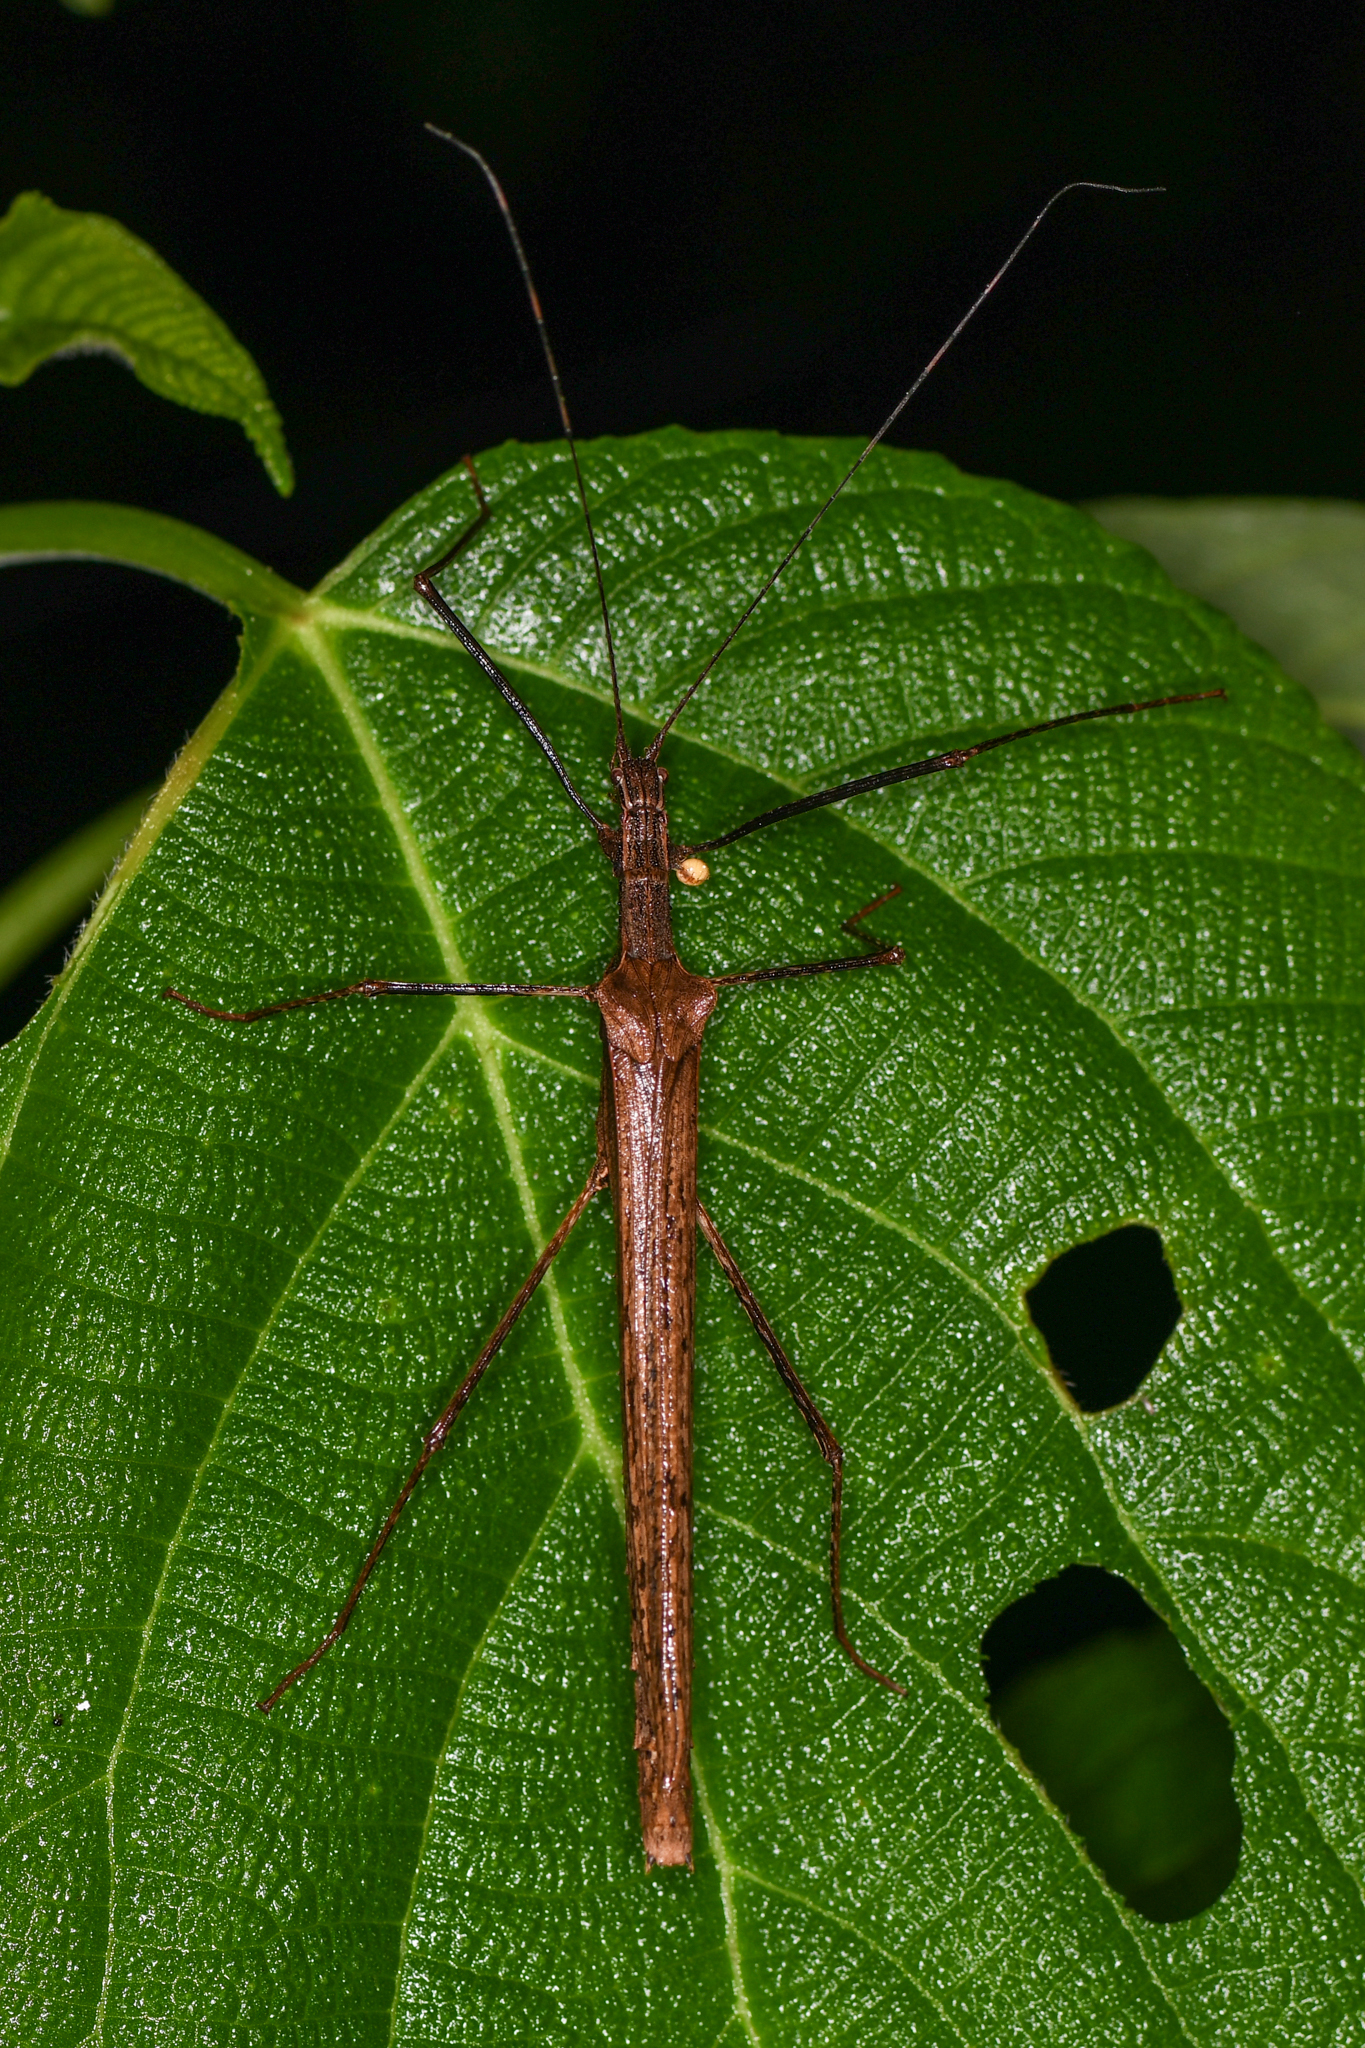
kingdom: Animalia
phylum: Arthropoda
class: Insecta
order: Phasmida
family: Pseudophasmatidae
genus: Pseudophasma
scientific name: Pseudophasma unicolor
